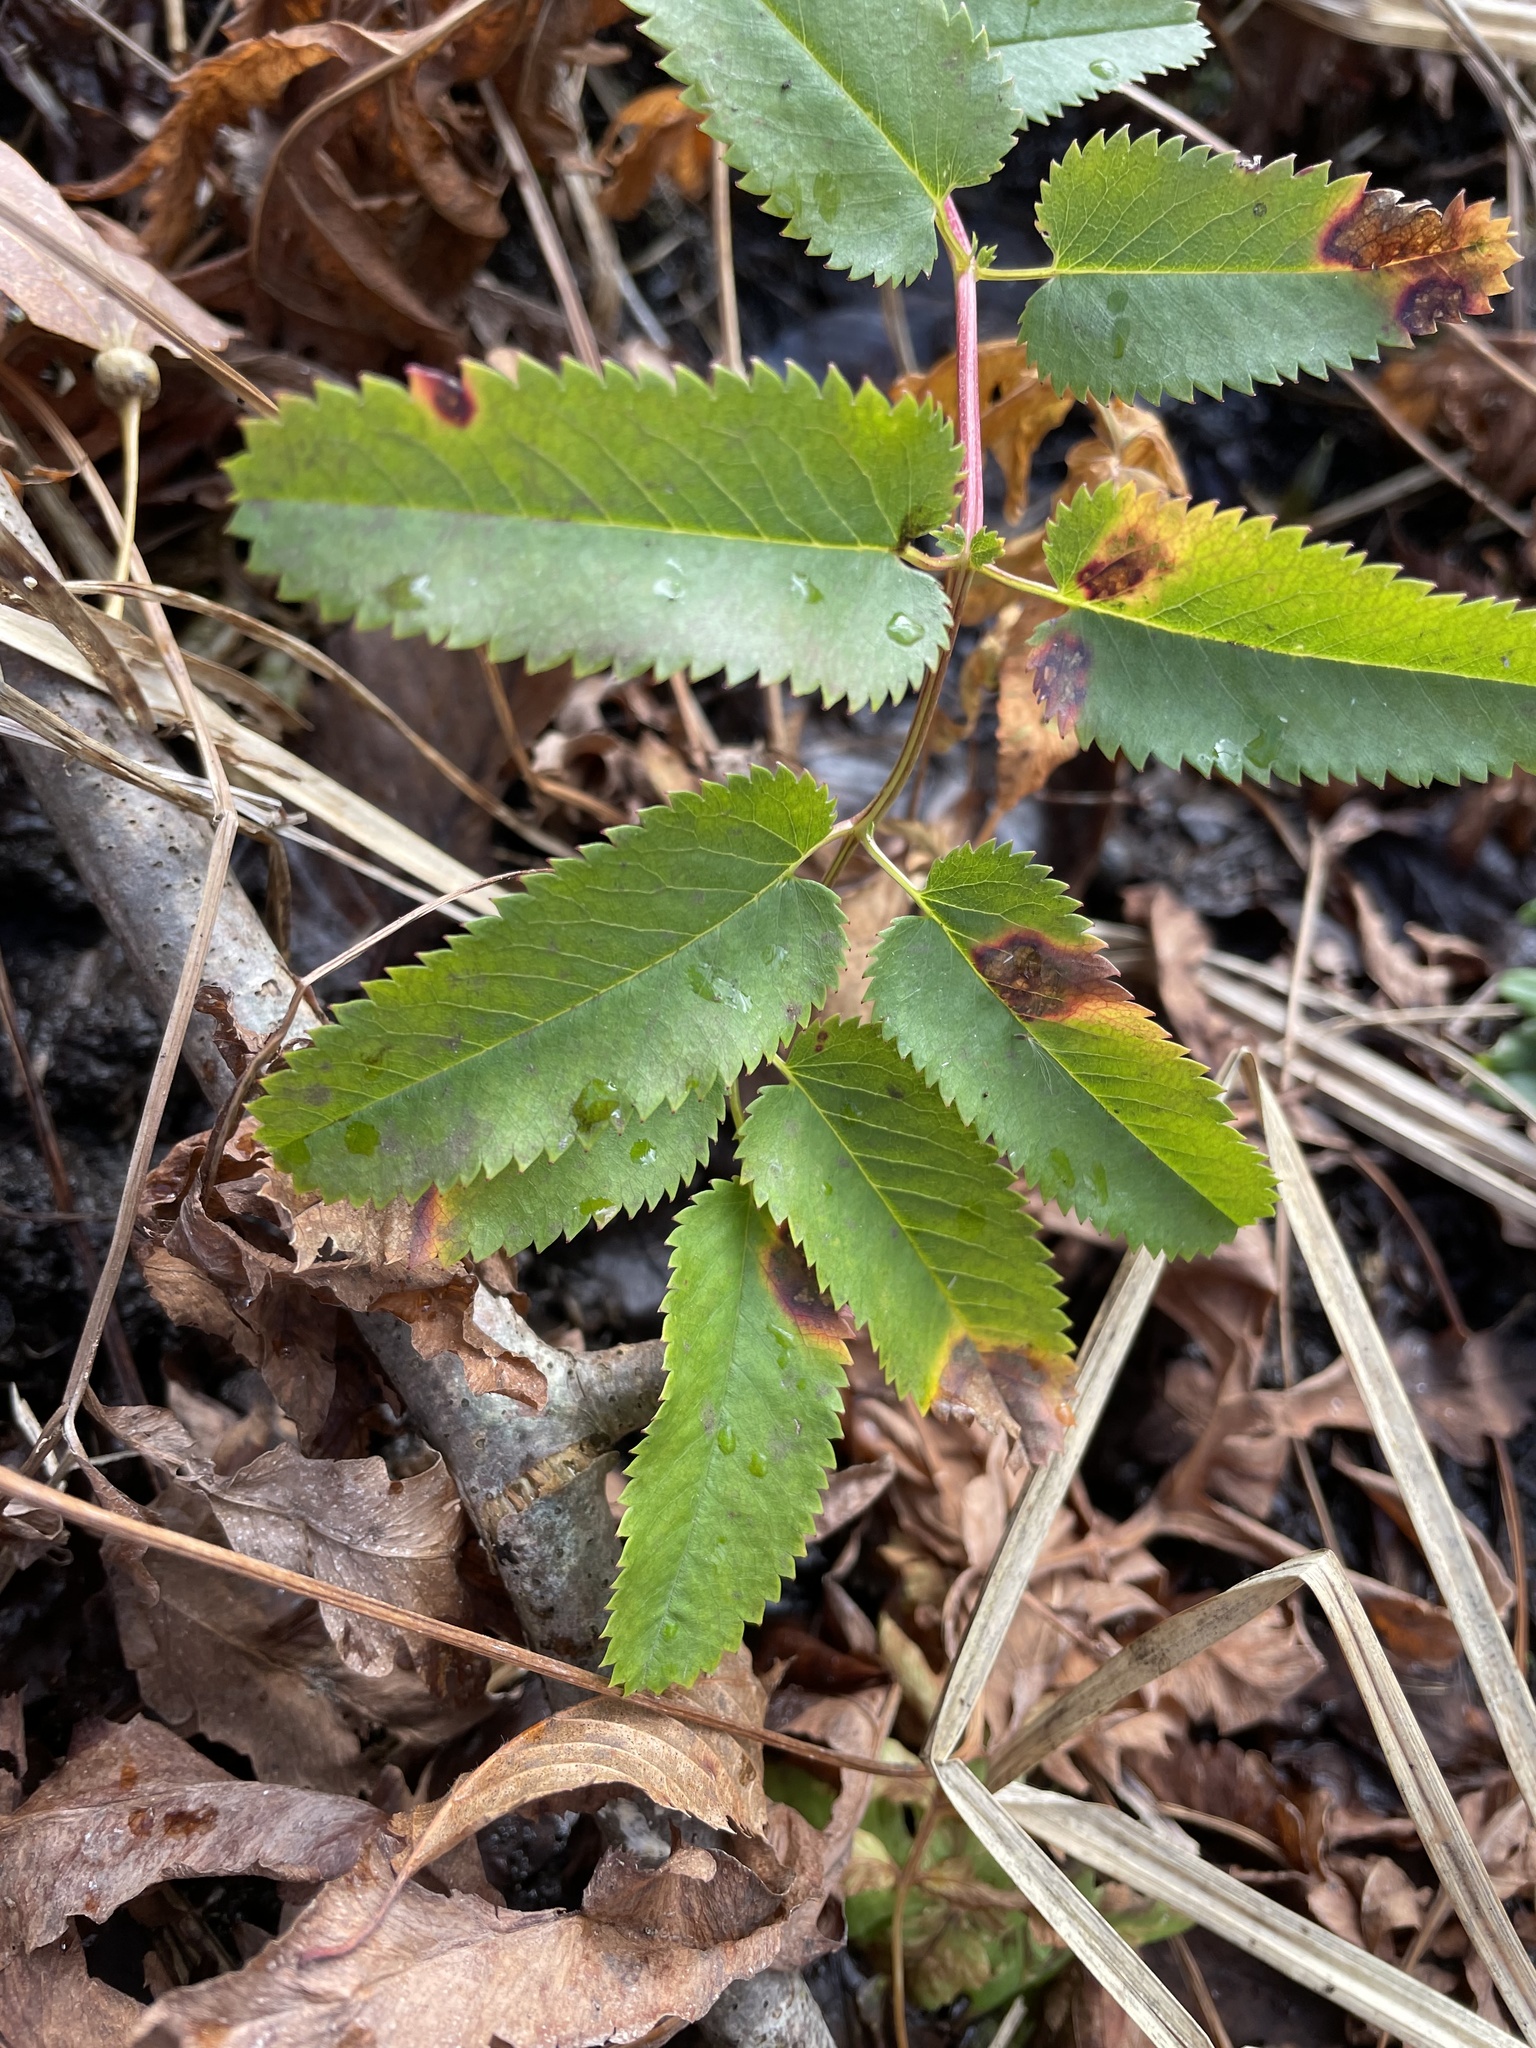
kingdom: Plantae
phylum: Tracheophyta
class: Magnoliopsida
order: Rosales
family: Rosaceae
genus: Sanguisorba
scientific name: Sanguisorba canadensis
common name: White burnet
